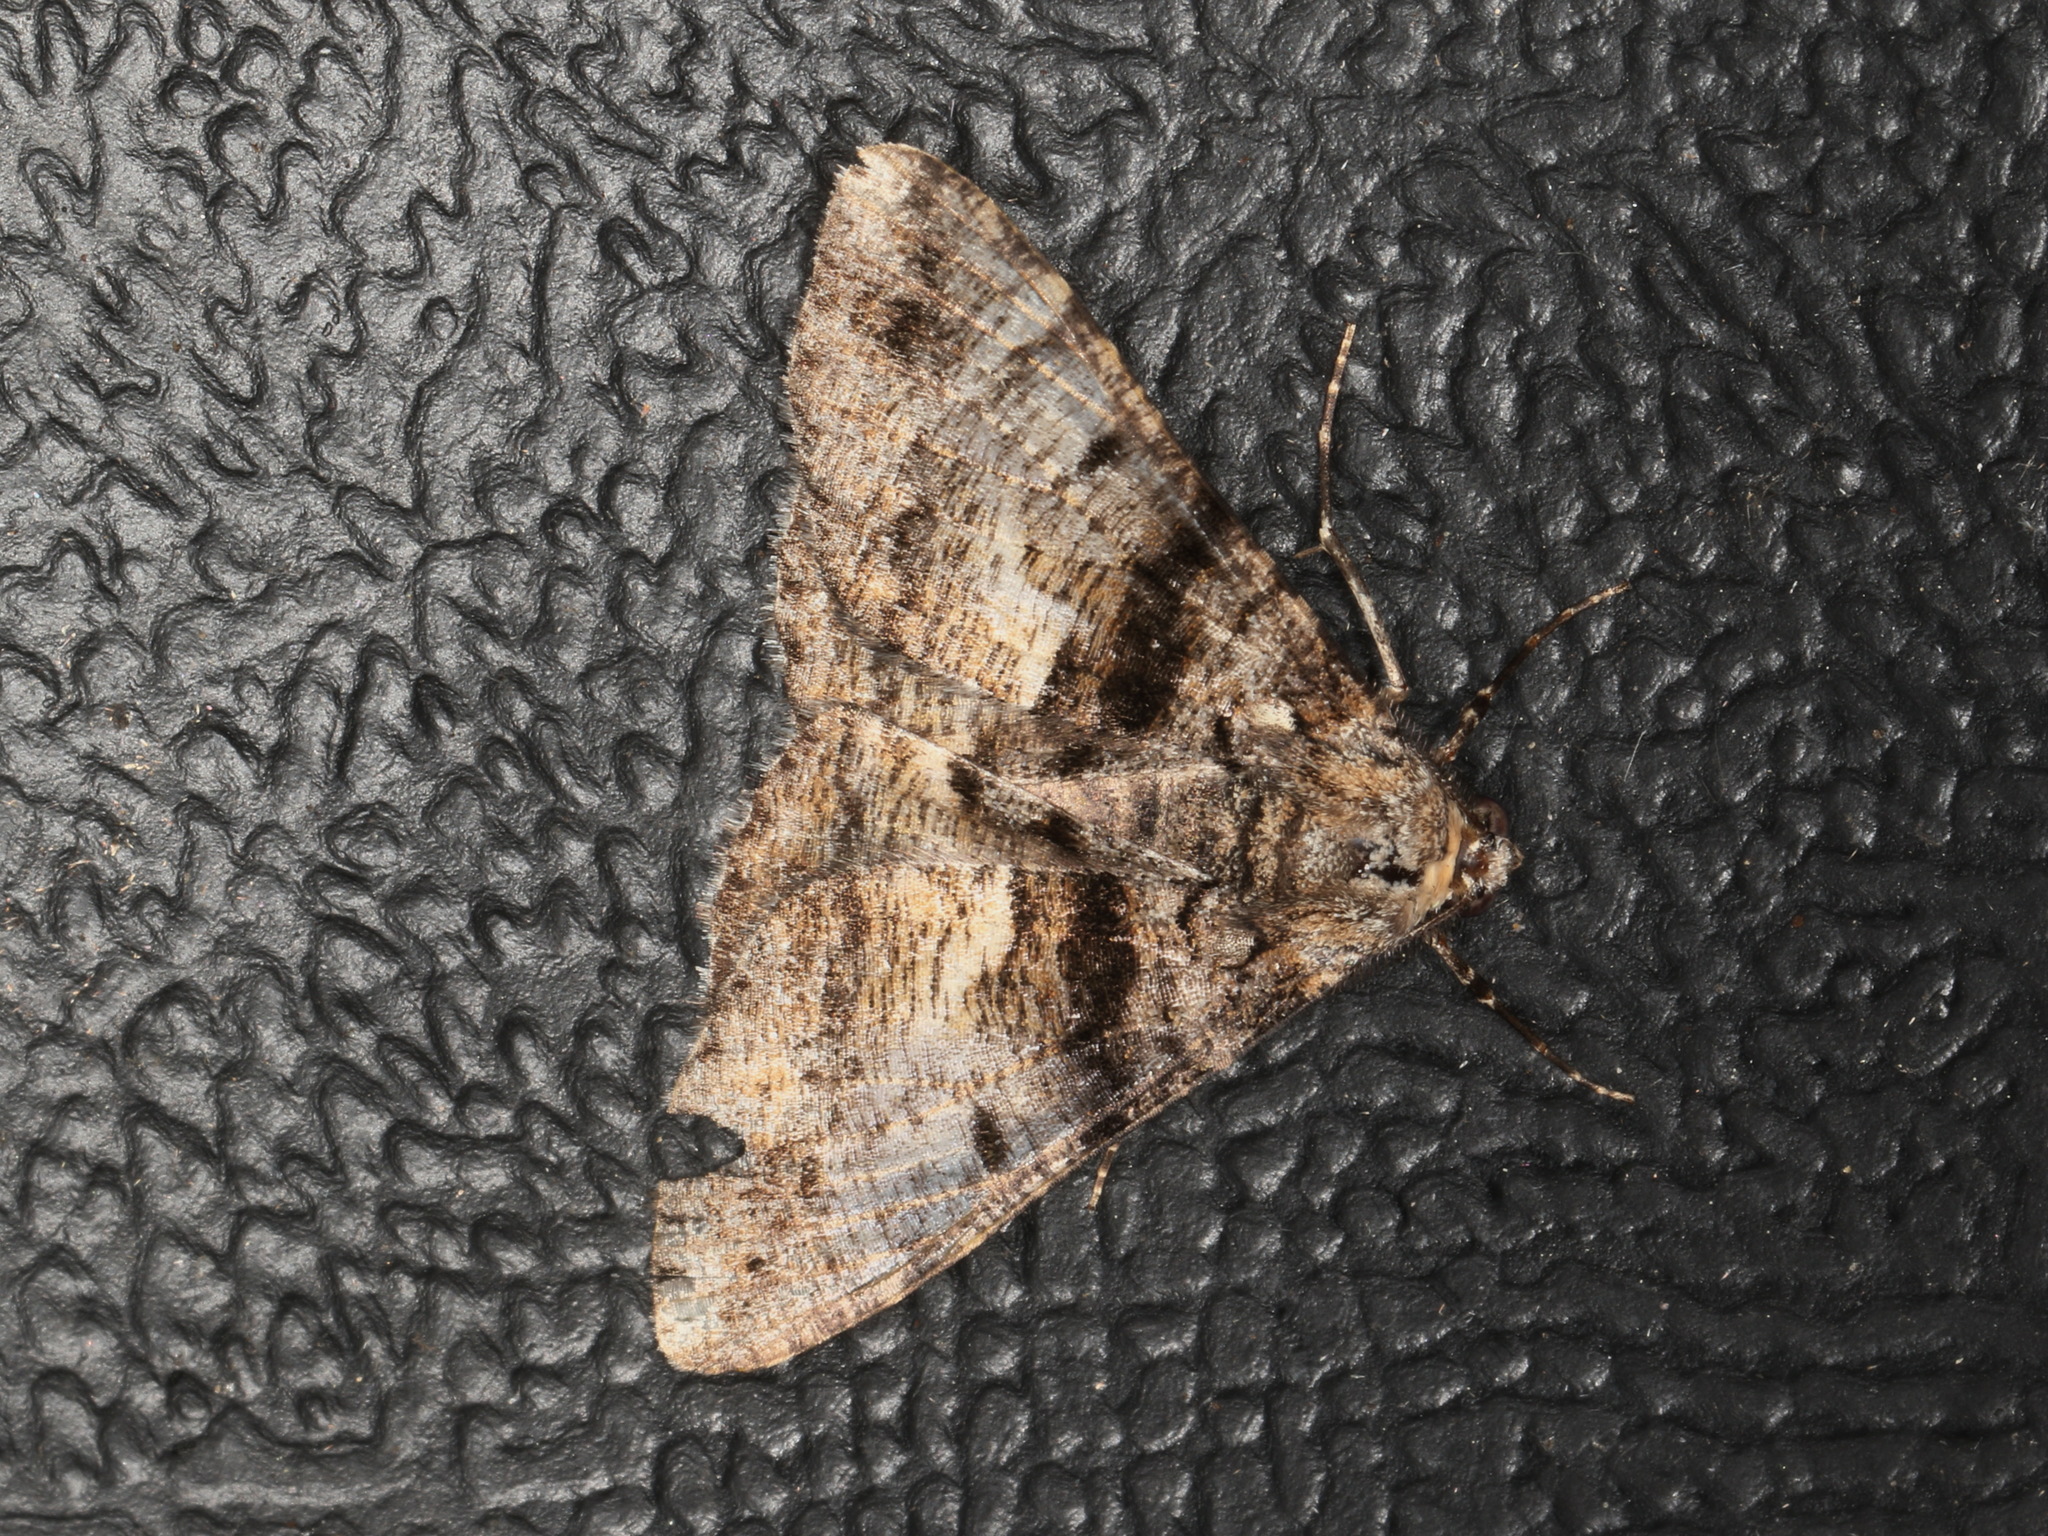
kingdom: Animalia
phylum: Arthropoda
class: Insecta
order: Lepidoptera
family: Geometridae
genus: Gastrinodes
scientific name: Gastrinodes argoplaca
